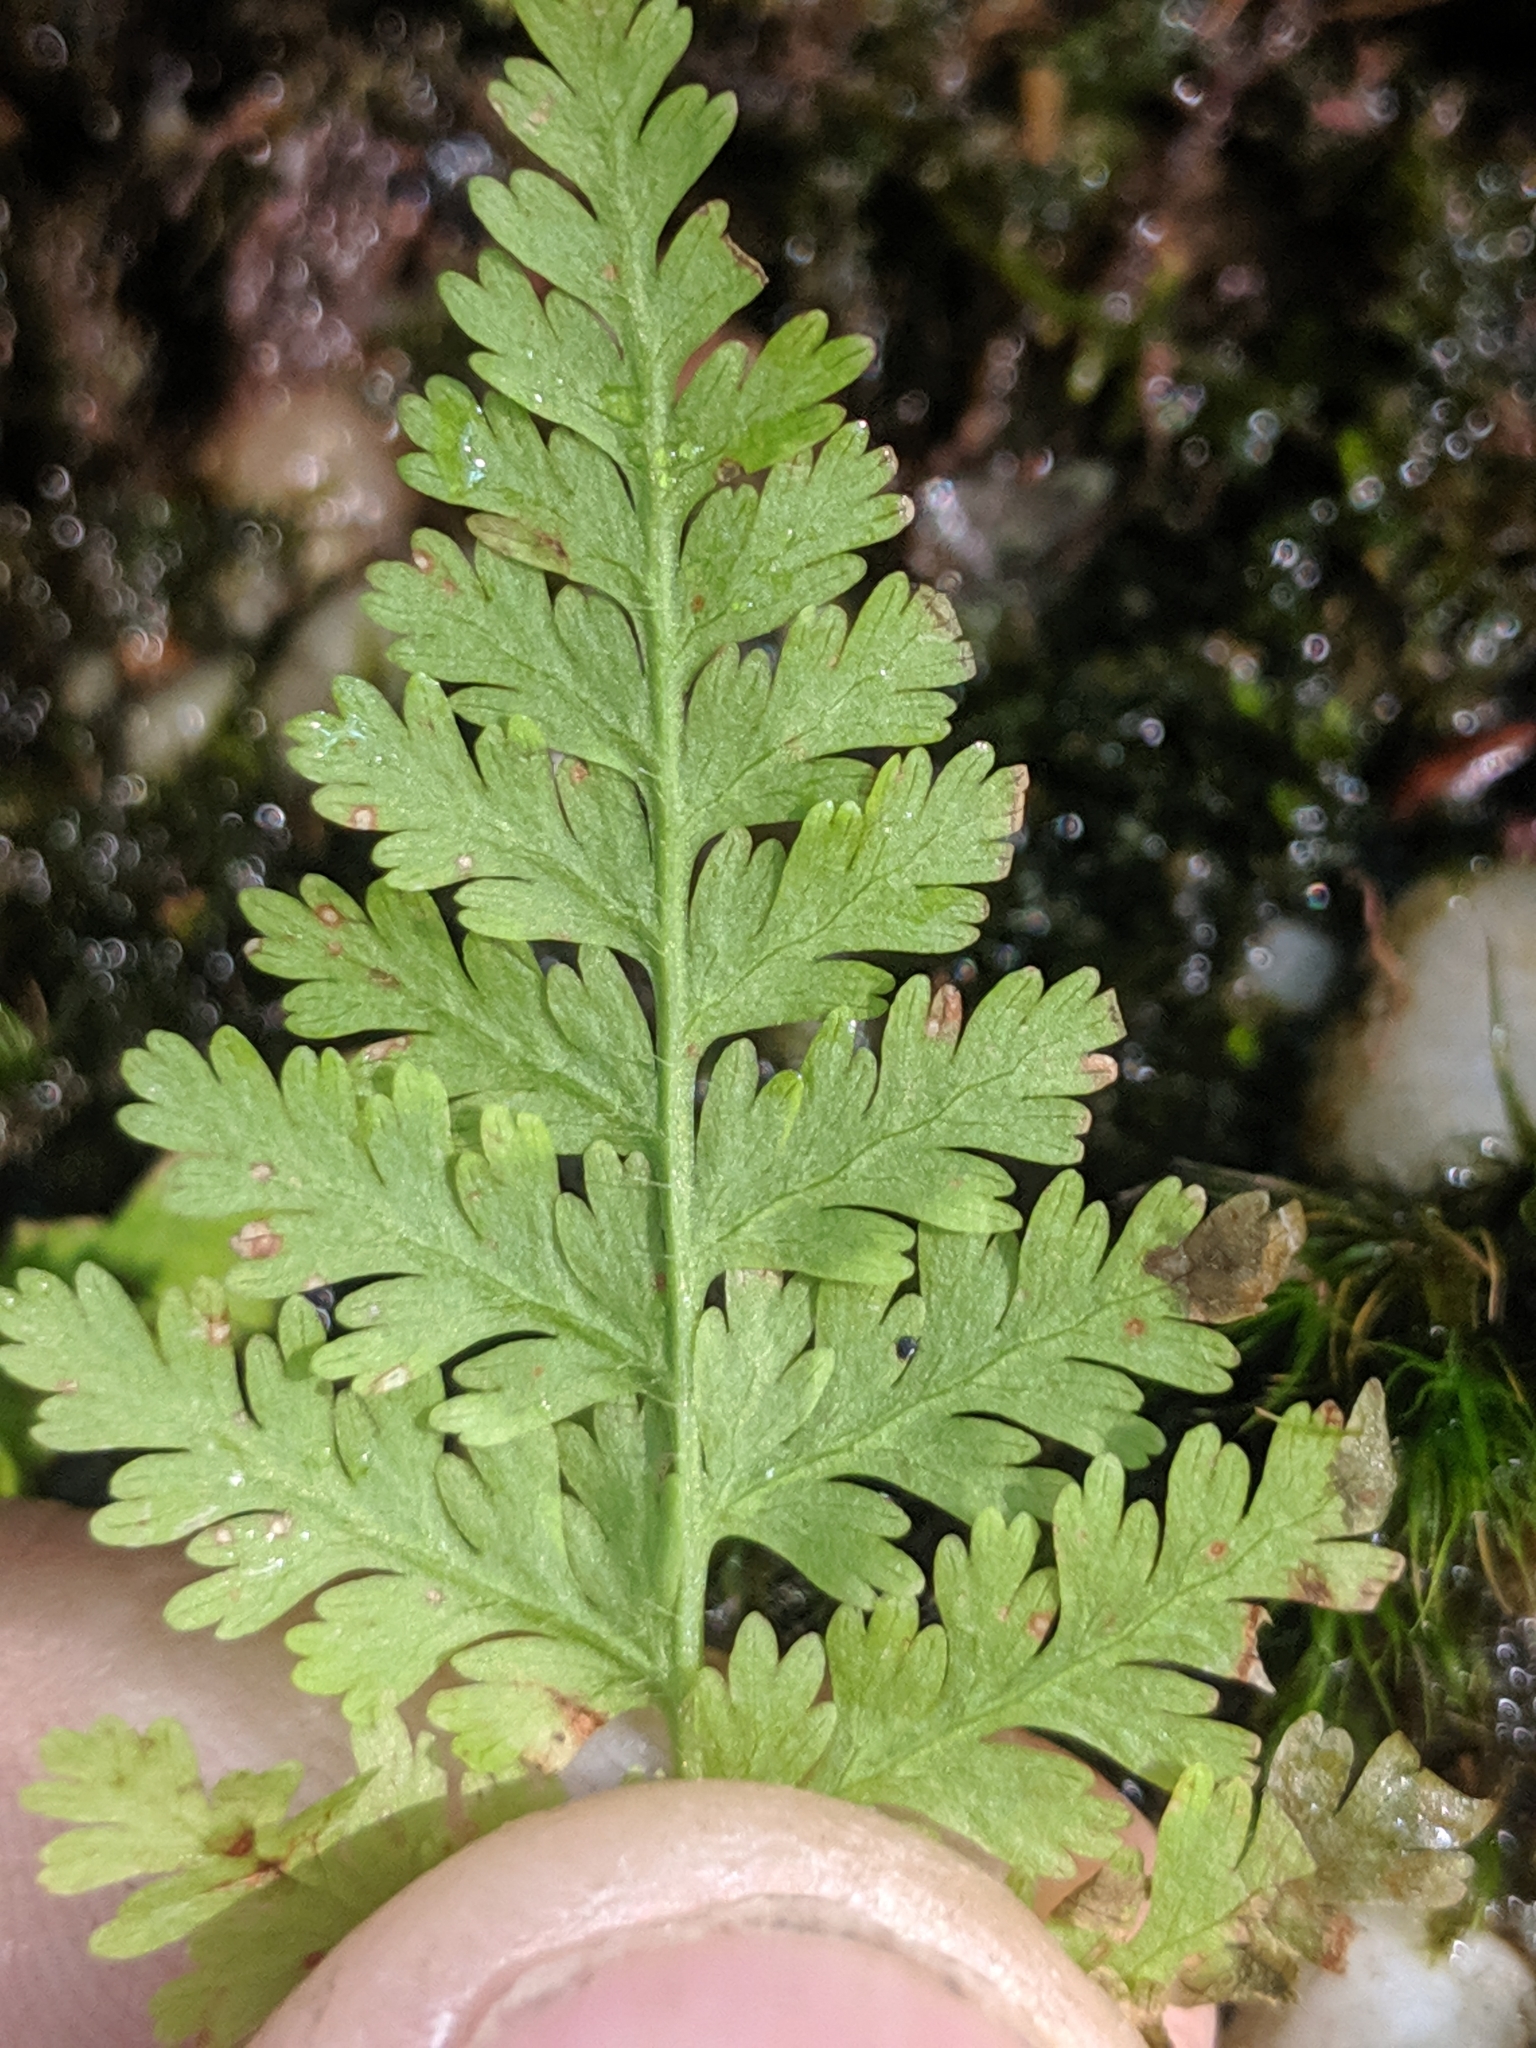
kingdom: Plantae
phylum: Tracheophyta
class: Polypodiopsida
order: Polypodiales
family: Dennstaedtiaceae
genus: Sitobolium
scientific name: Sitobolium punctilobum
